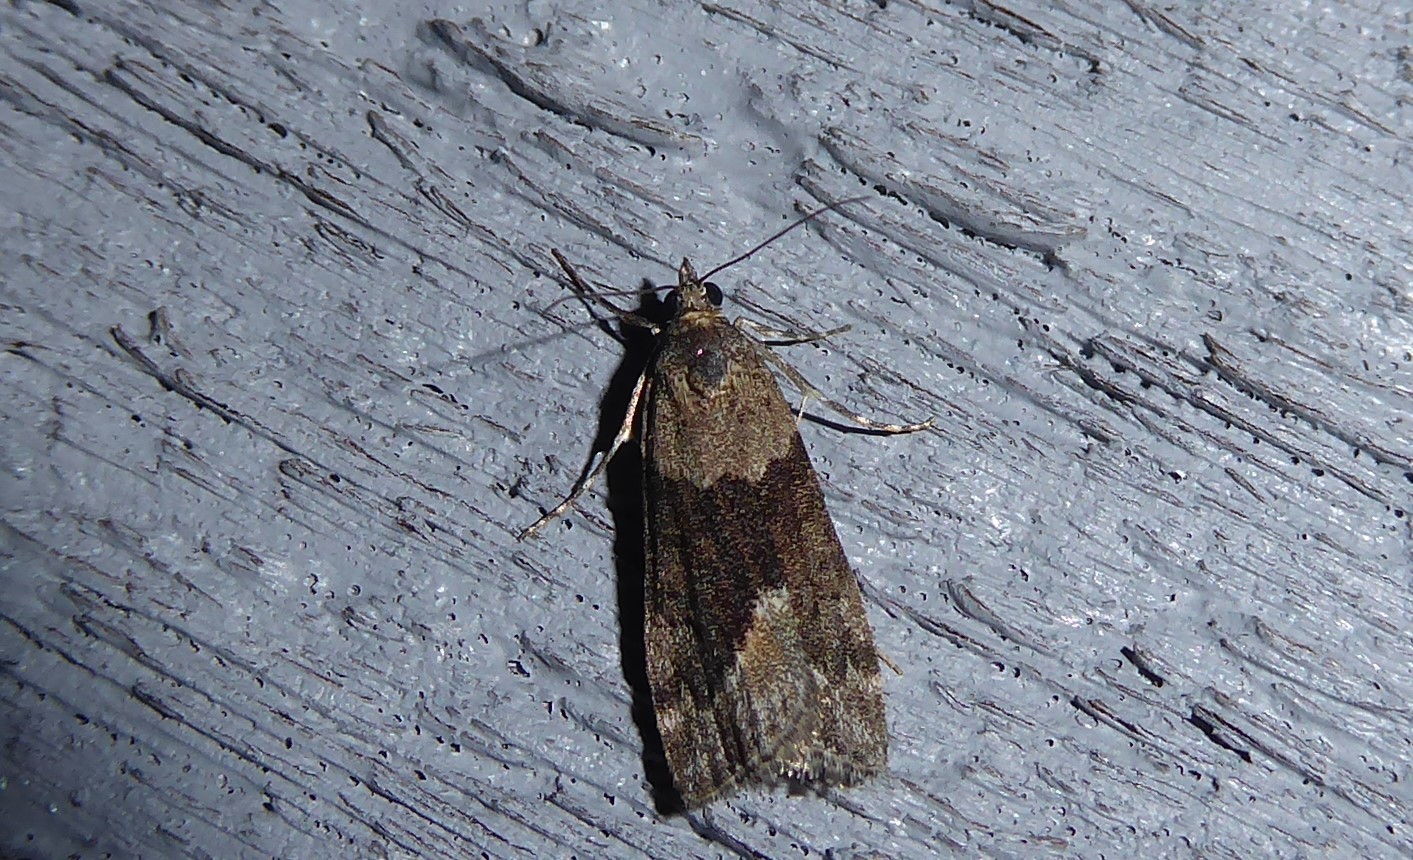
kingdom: Animalia
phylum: Arthropoda
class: Insecta
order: Lepidoptera
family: Crambidae
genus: Eudonia
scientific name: Eudonia submarginalis
